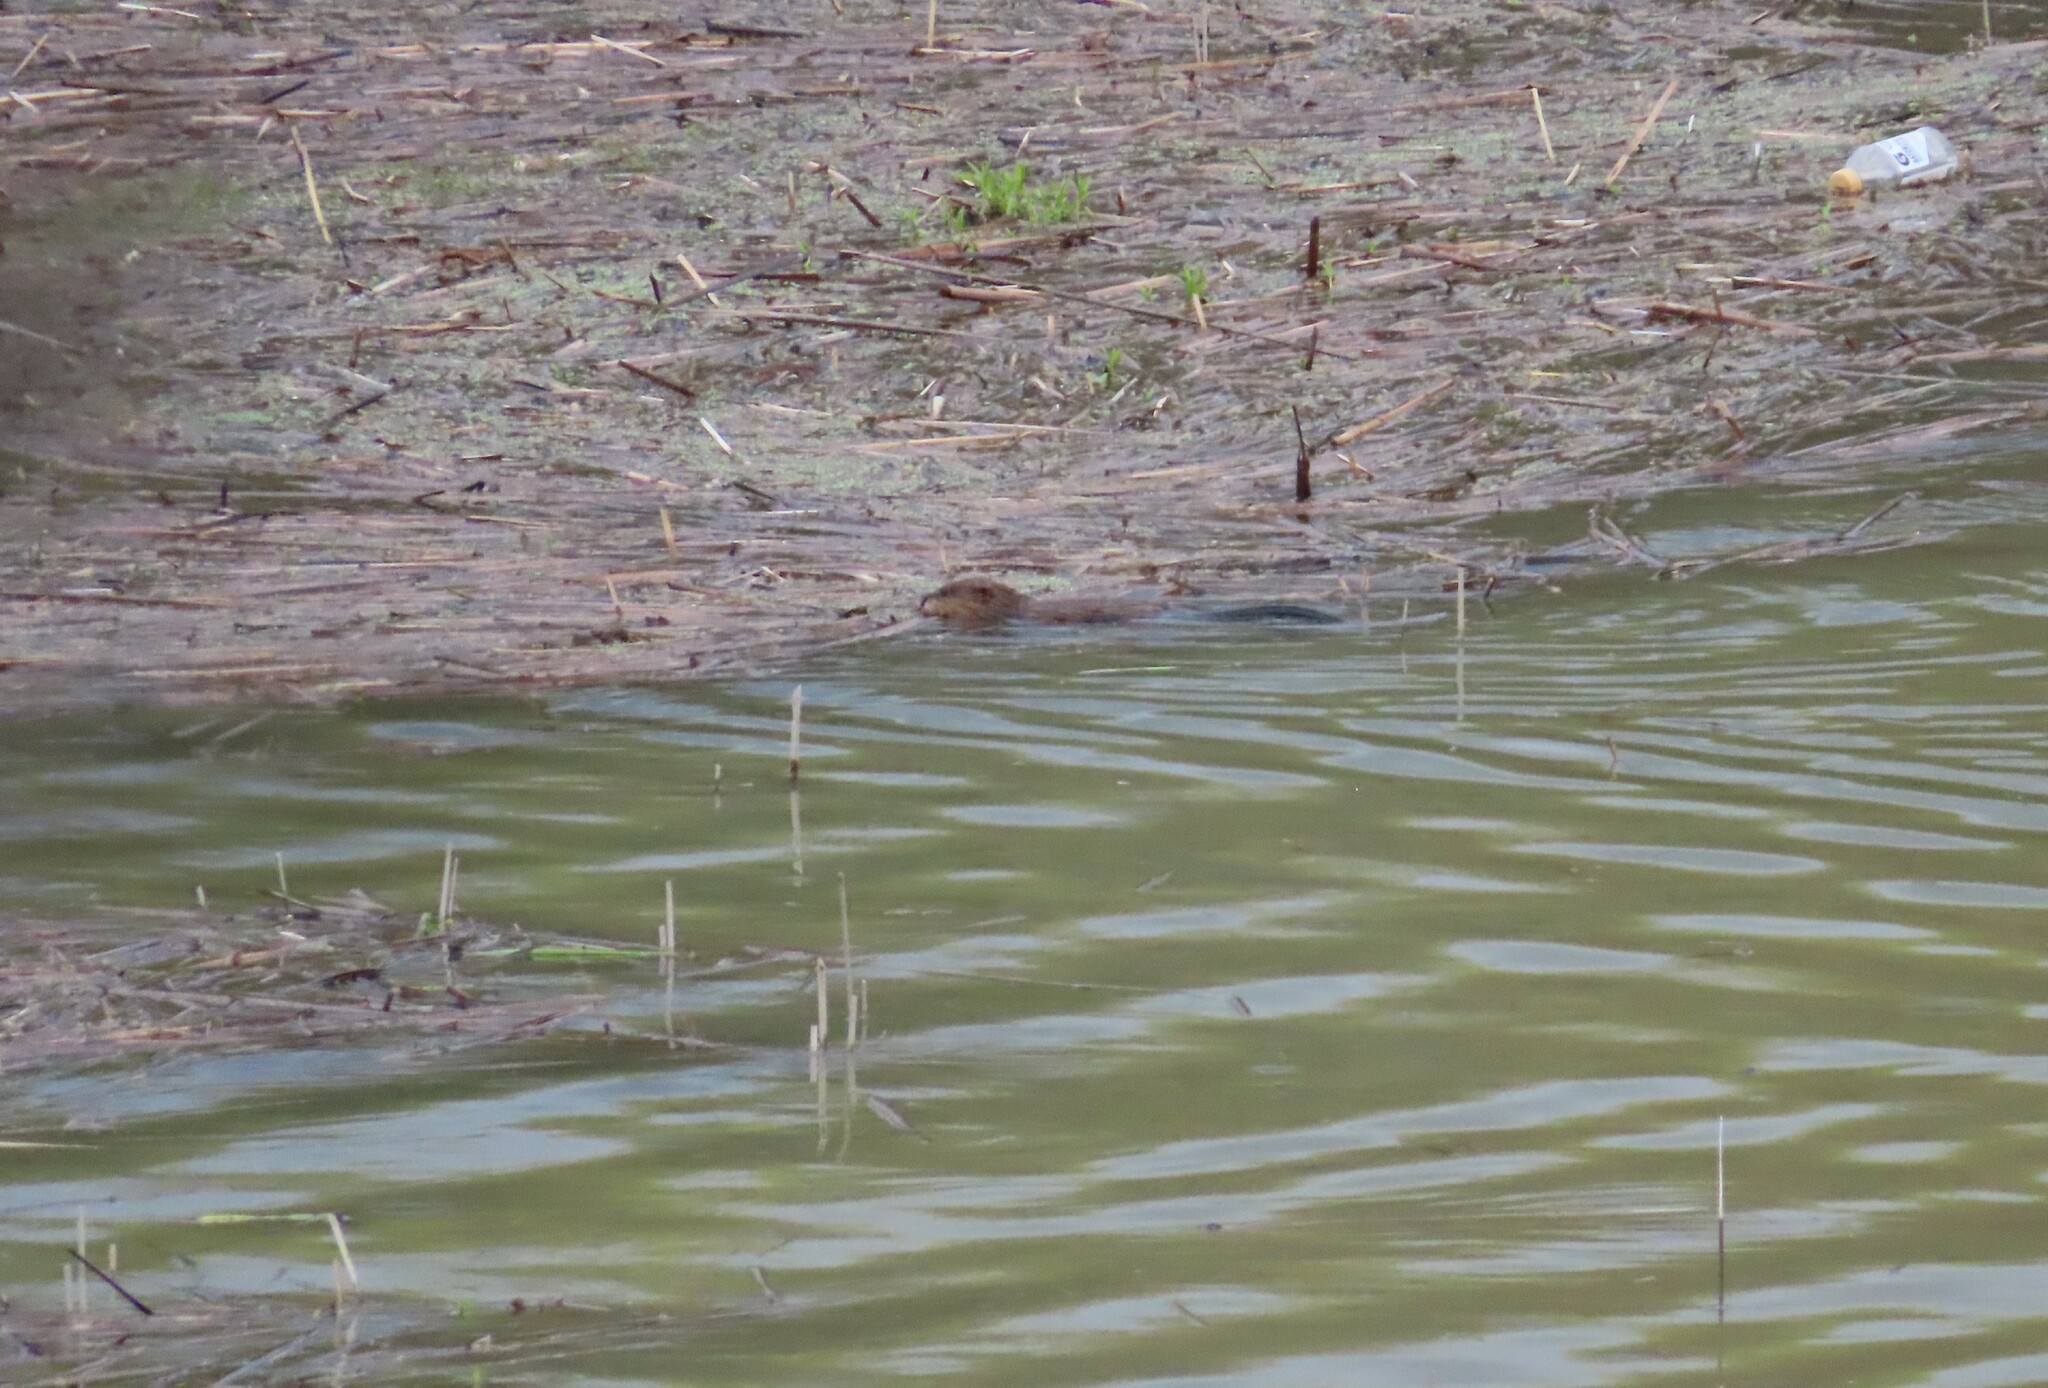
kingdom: Animalia
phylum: Chordata
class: Mammalia
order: Rodentia
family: Cricetidae
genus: Ondatra
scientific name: Ondatra zibethicus
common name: Muskrat
